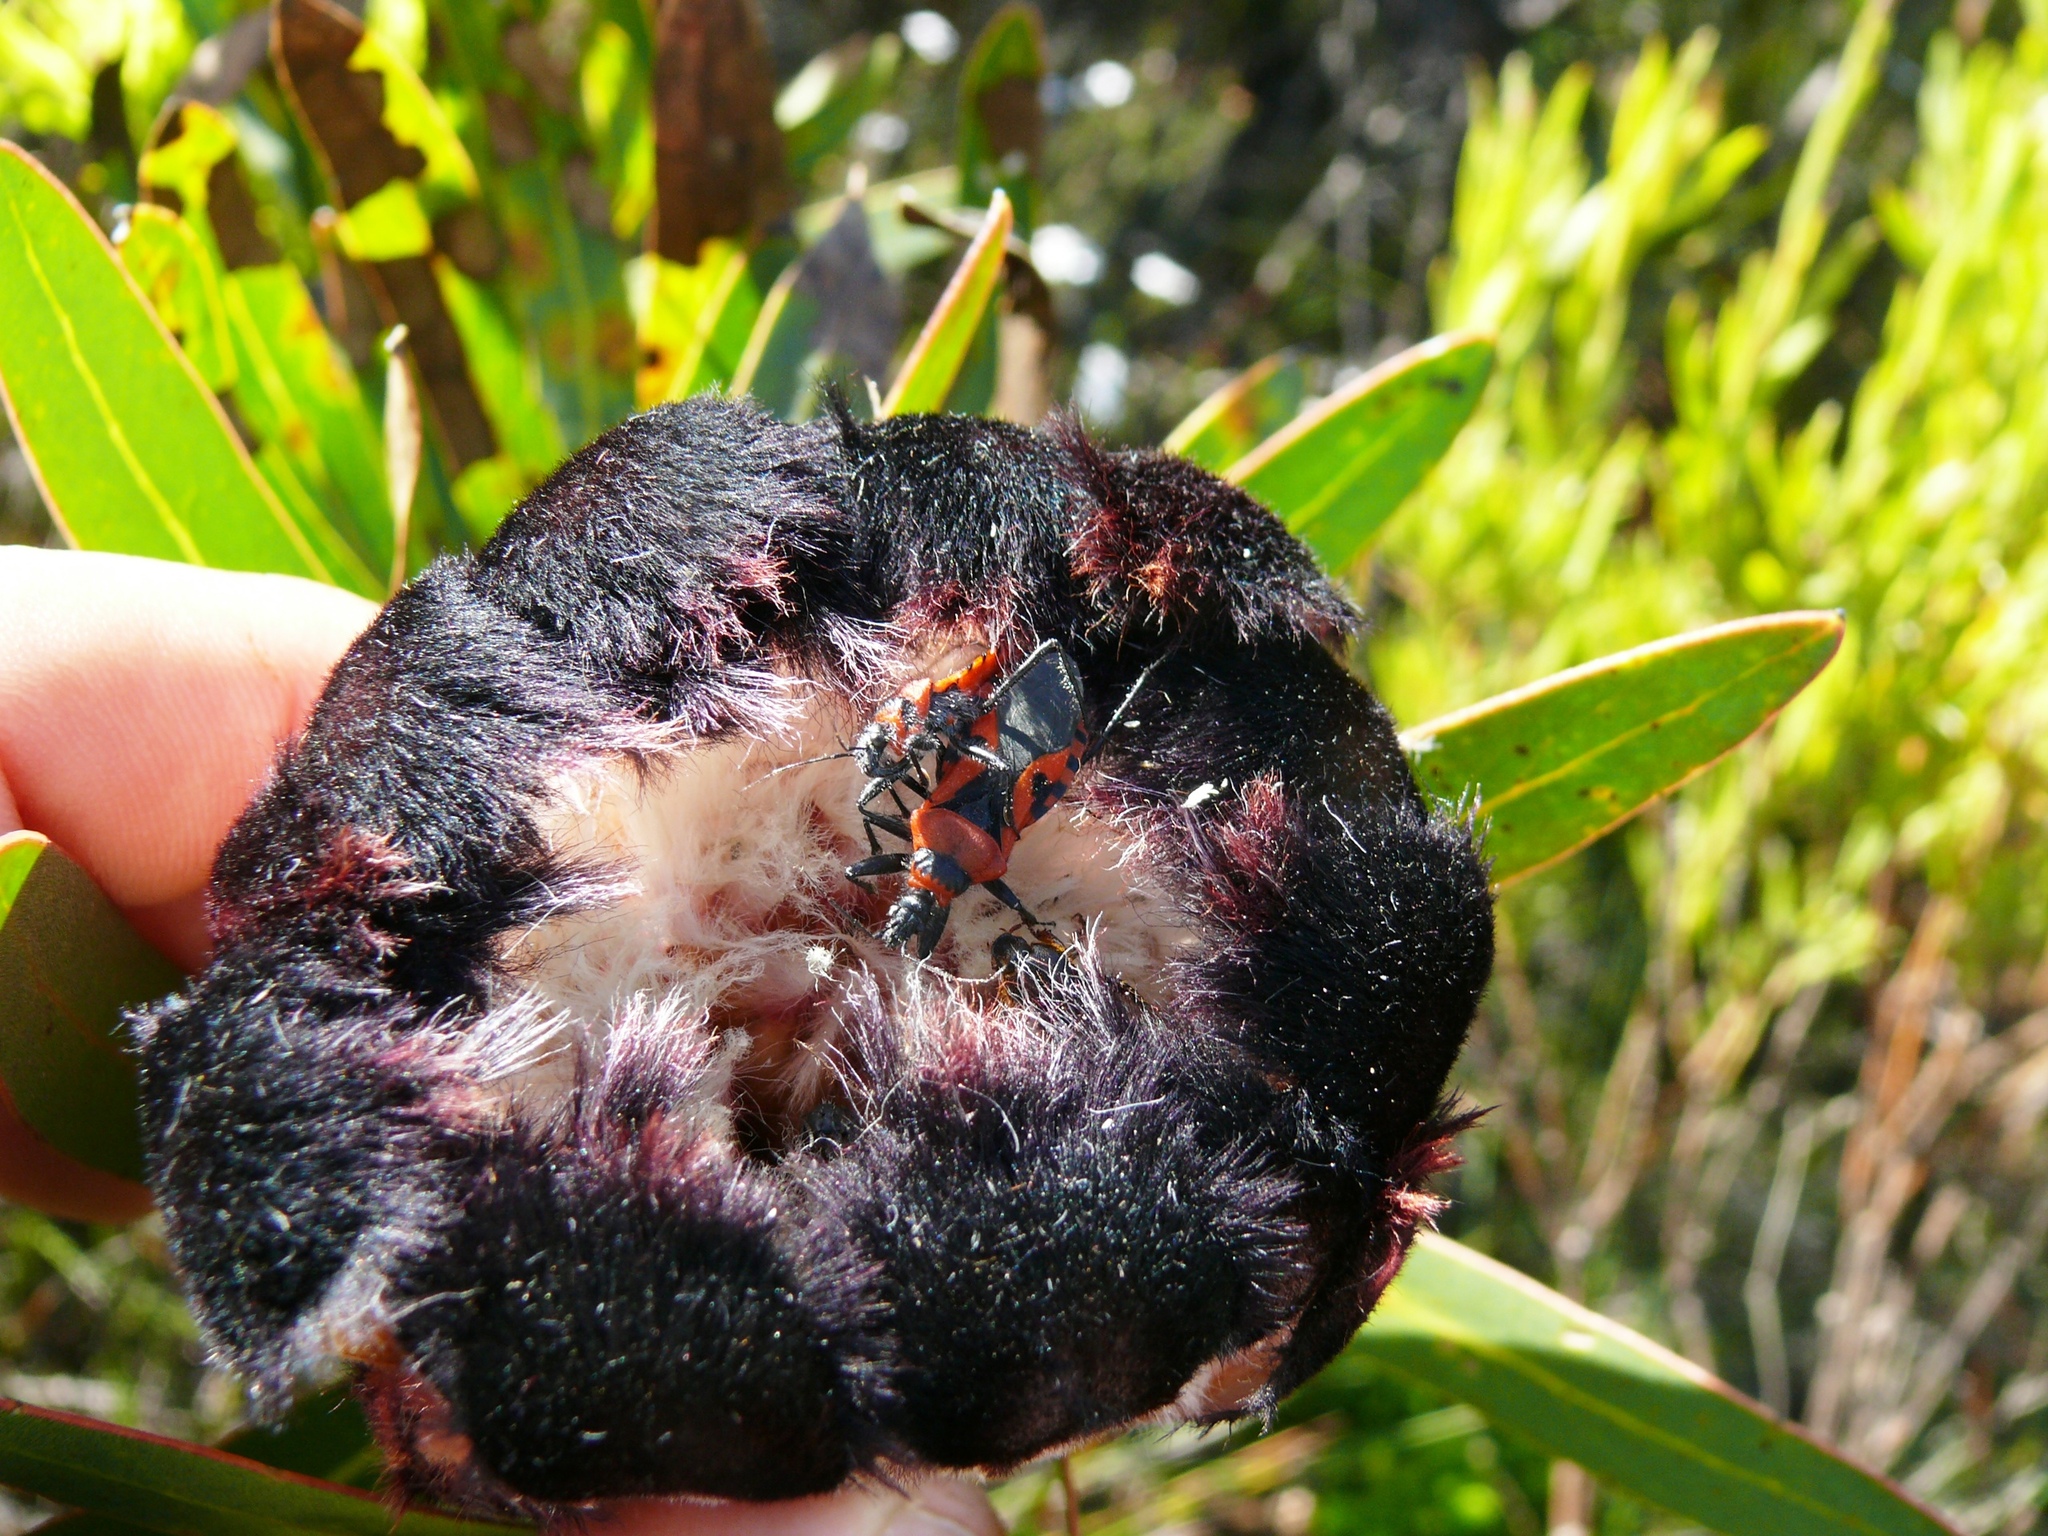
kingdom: Plantae
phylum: Tracheophyta
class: Magnoliopsida
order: Proteales
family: Proteaceae
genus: Protea
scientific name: Protea lepidocarpodendron
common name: Black-bearded protea
